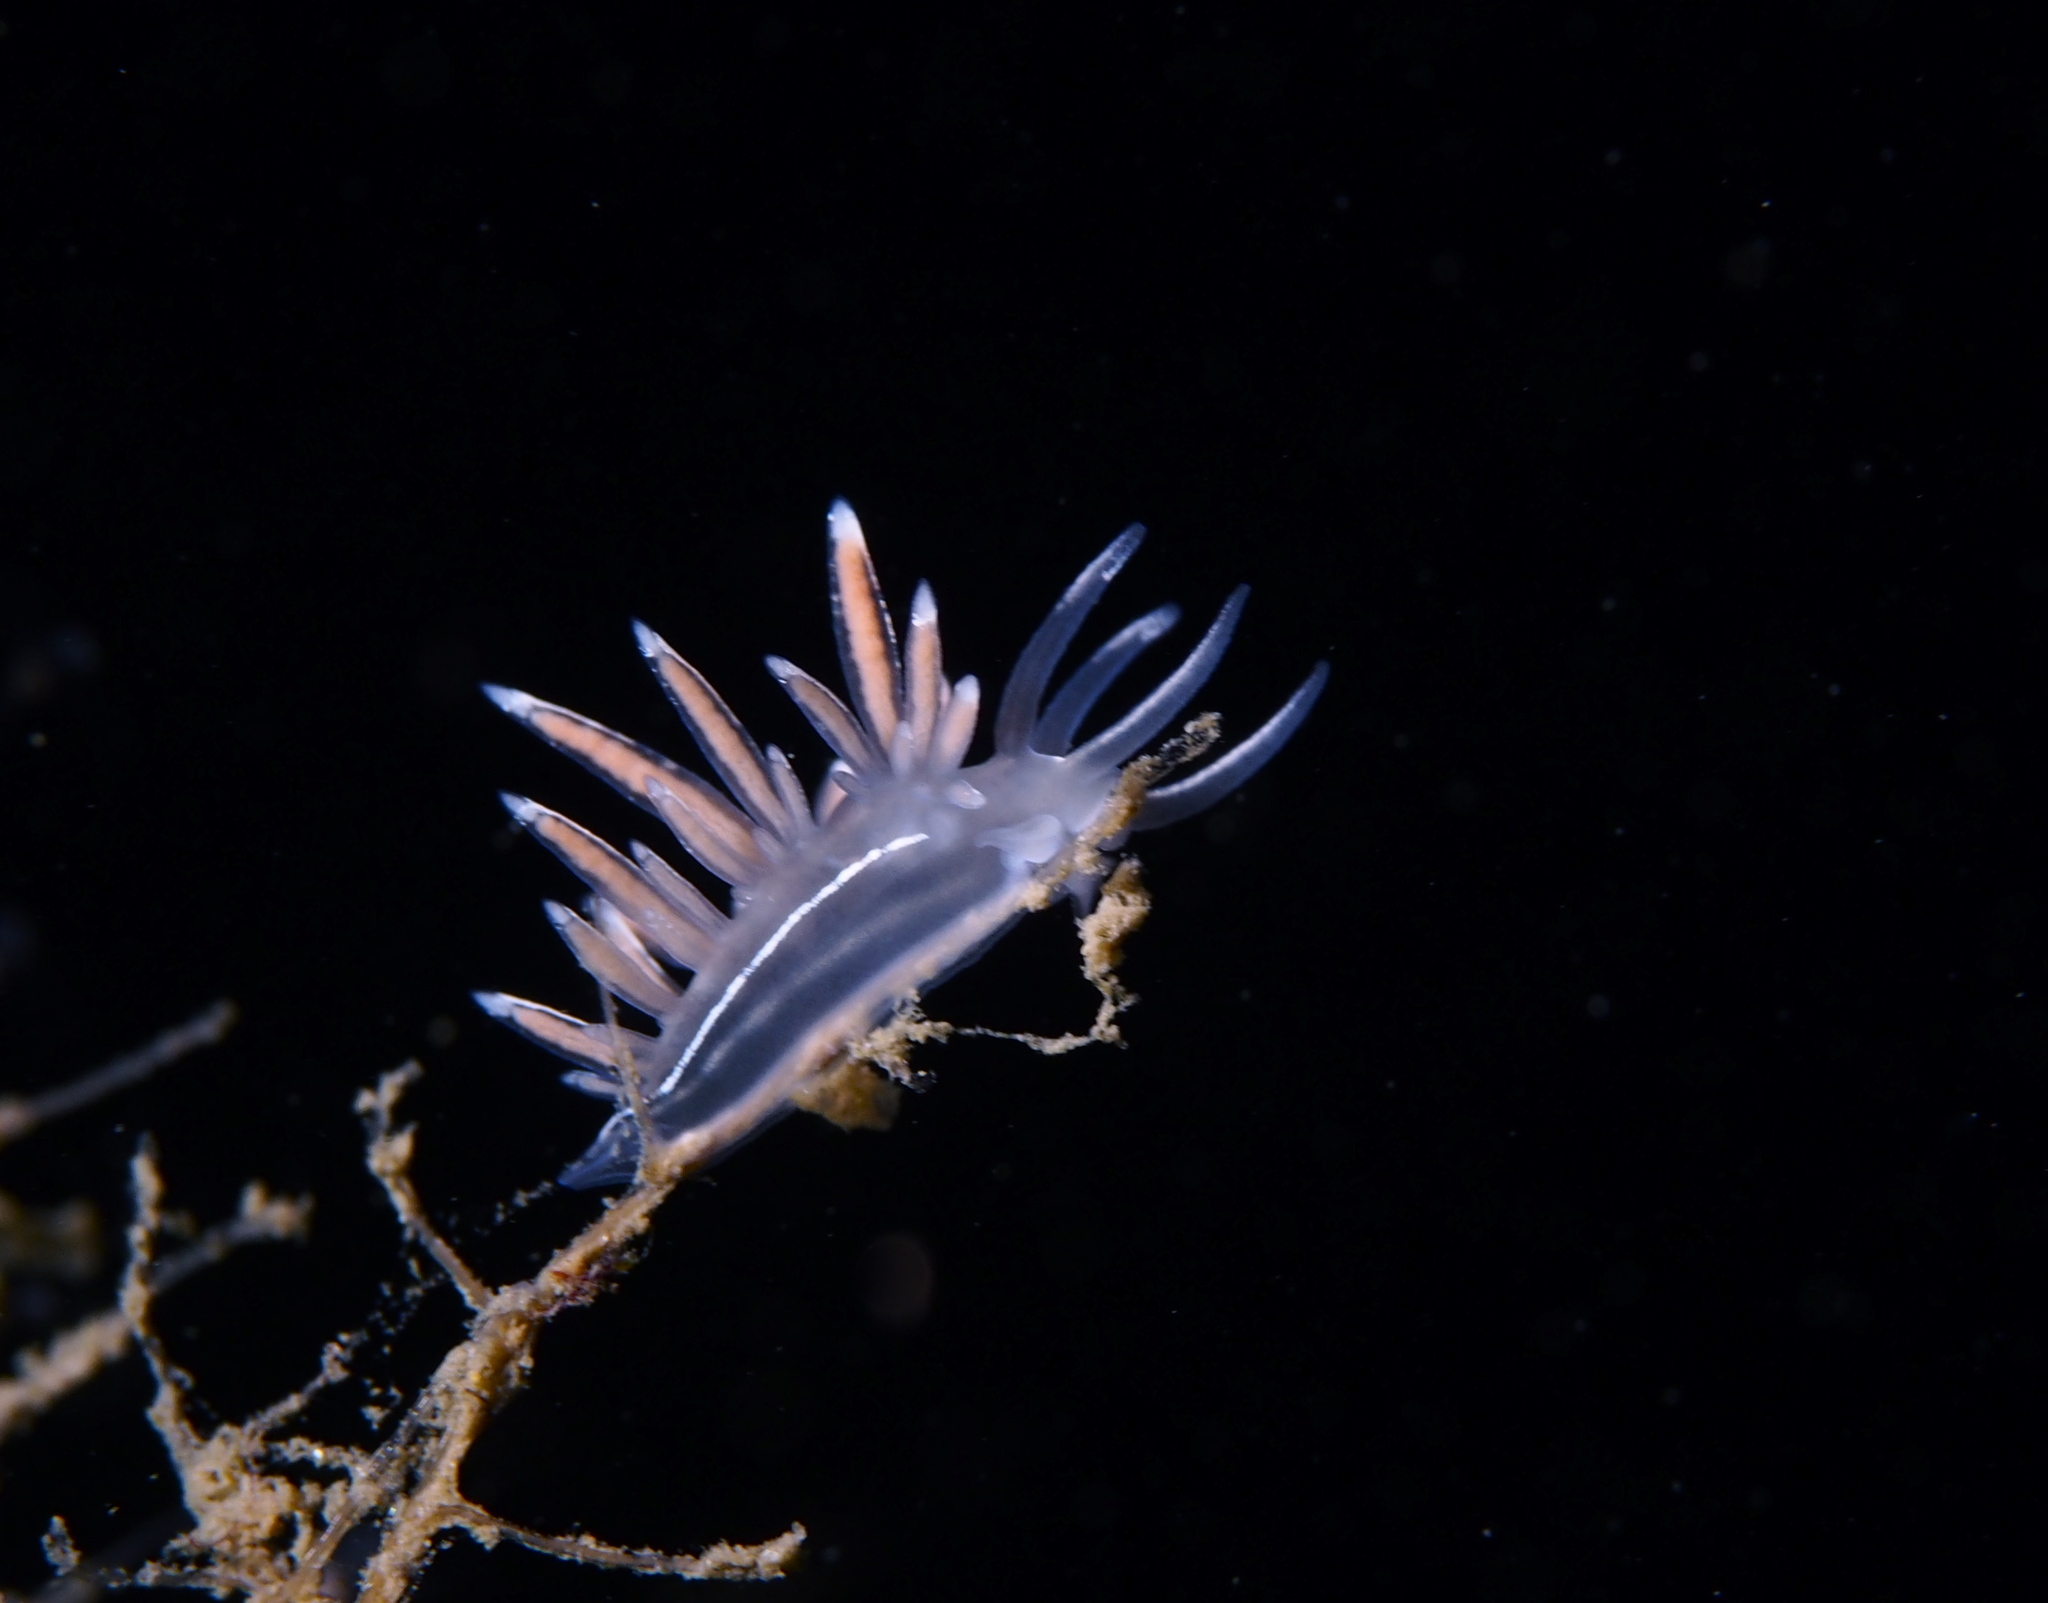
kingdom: Animalia
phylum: Mollusca
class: Gastropoda
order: Nudibranchia
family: Coryphellidae
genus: Coryphella
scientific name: Coryphella lineata
